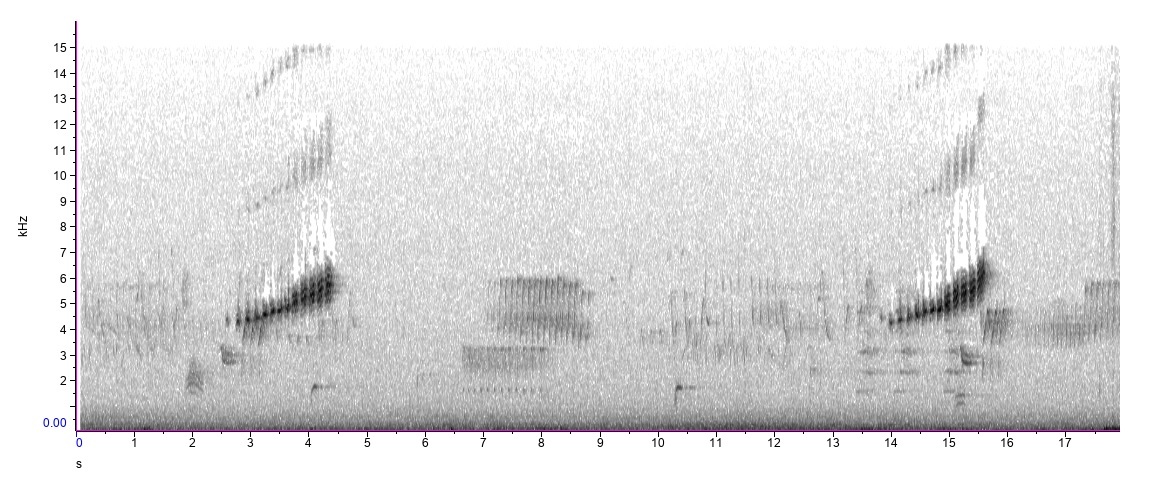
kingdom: Animalia
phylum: Chordata
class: Aves
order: Passeriformes
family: Parulidae
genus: Setophaga
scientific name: Setophaga discolor
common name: Prairie warbler
